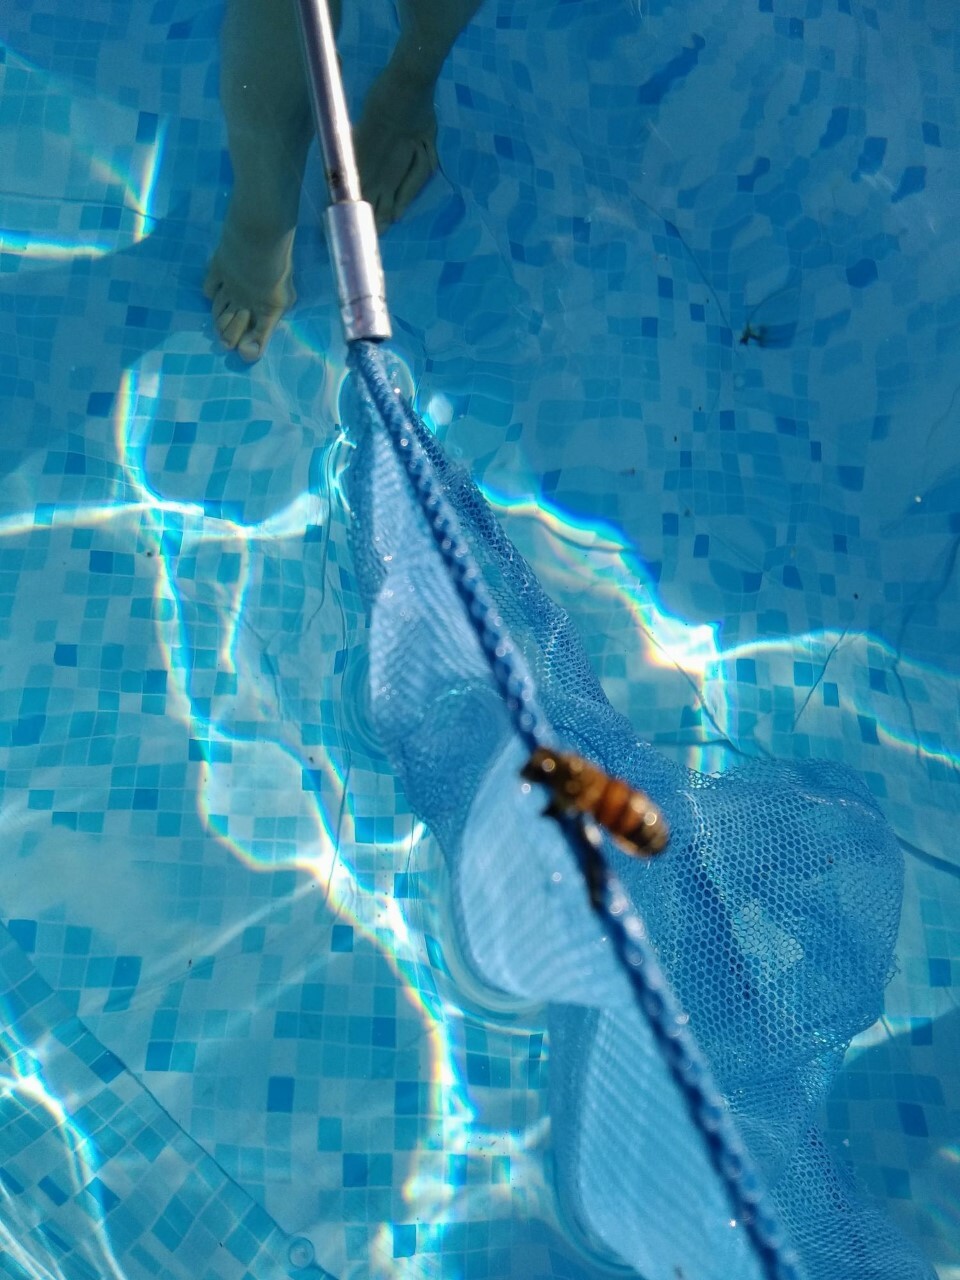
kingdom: Animalia
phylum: Arthropoda
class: Insecta
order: Hymenoptera
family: Apidae
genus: Apis
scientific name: Apis mellifera
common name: Honey bee
